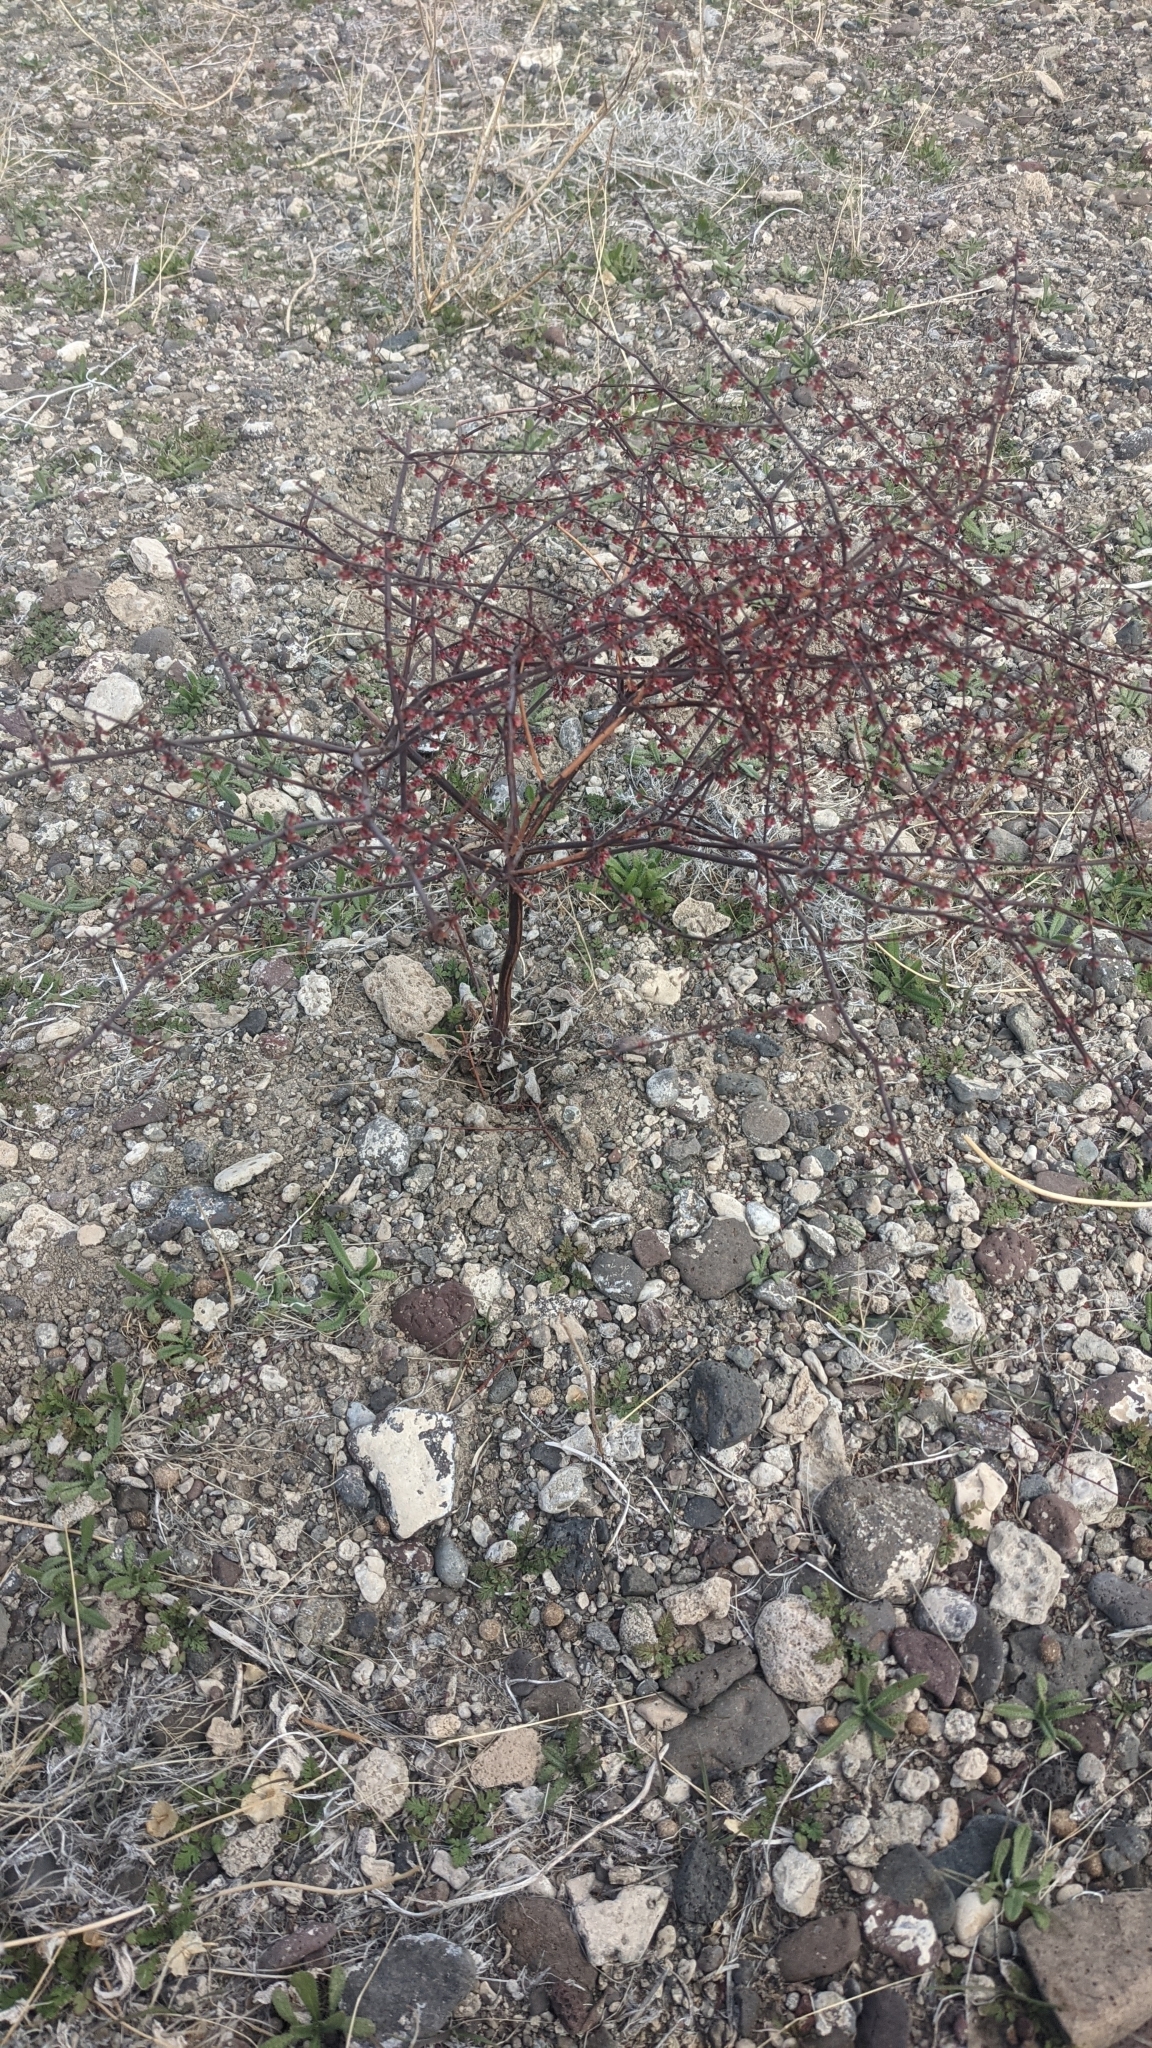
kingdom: Plantae
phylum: Tracheophyta
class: Magnoliopsida
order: Caryophyllales
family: Polygonaceae
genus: Eriogonum
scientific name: Eriogonum deflexum
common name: Skeleton-weed
